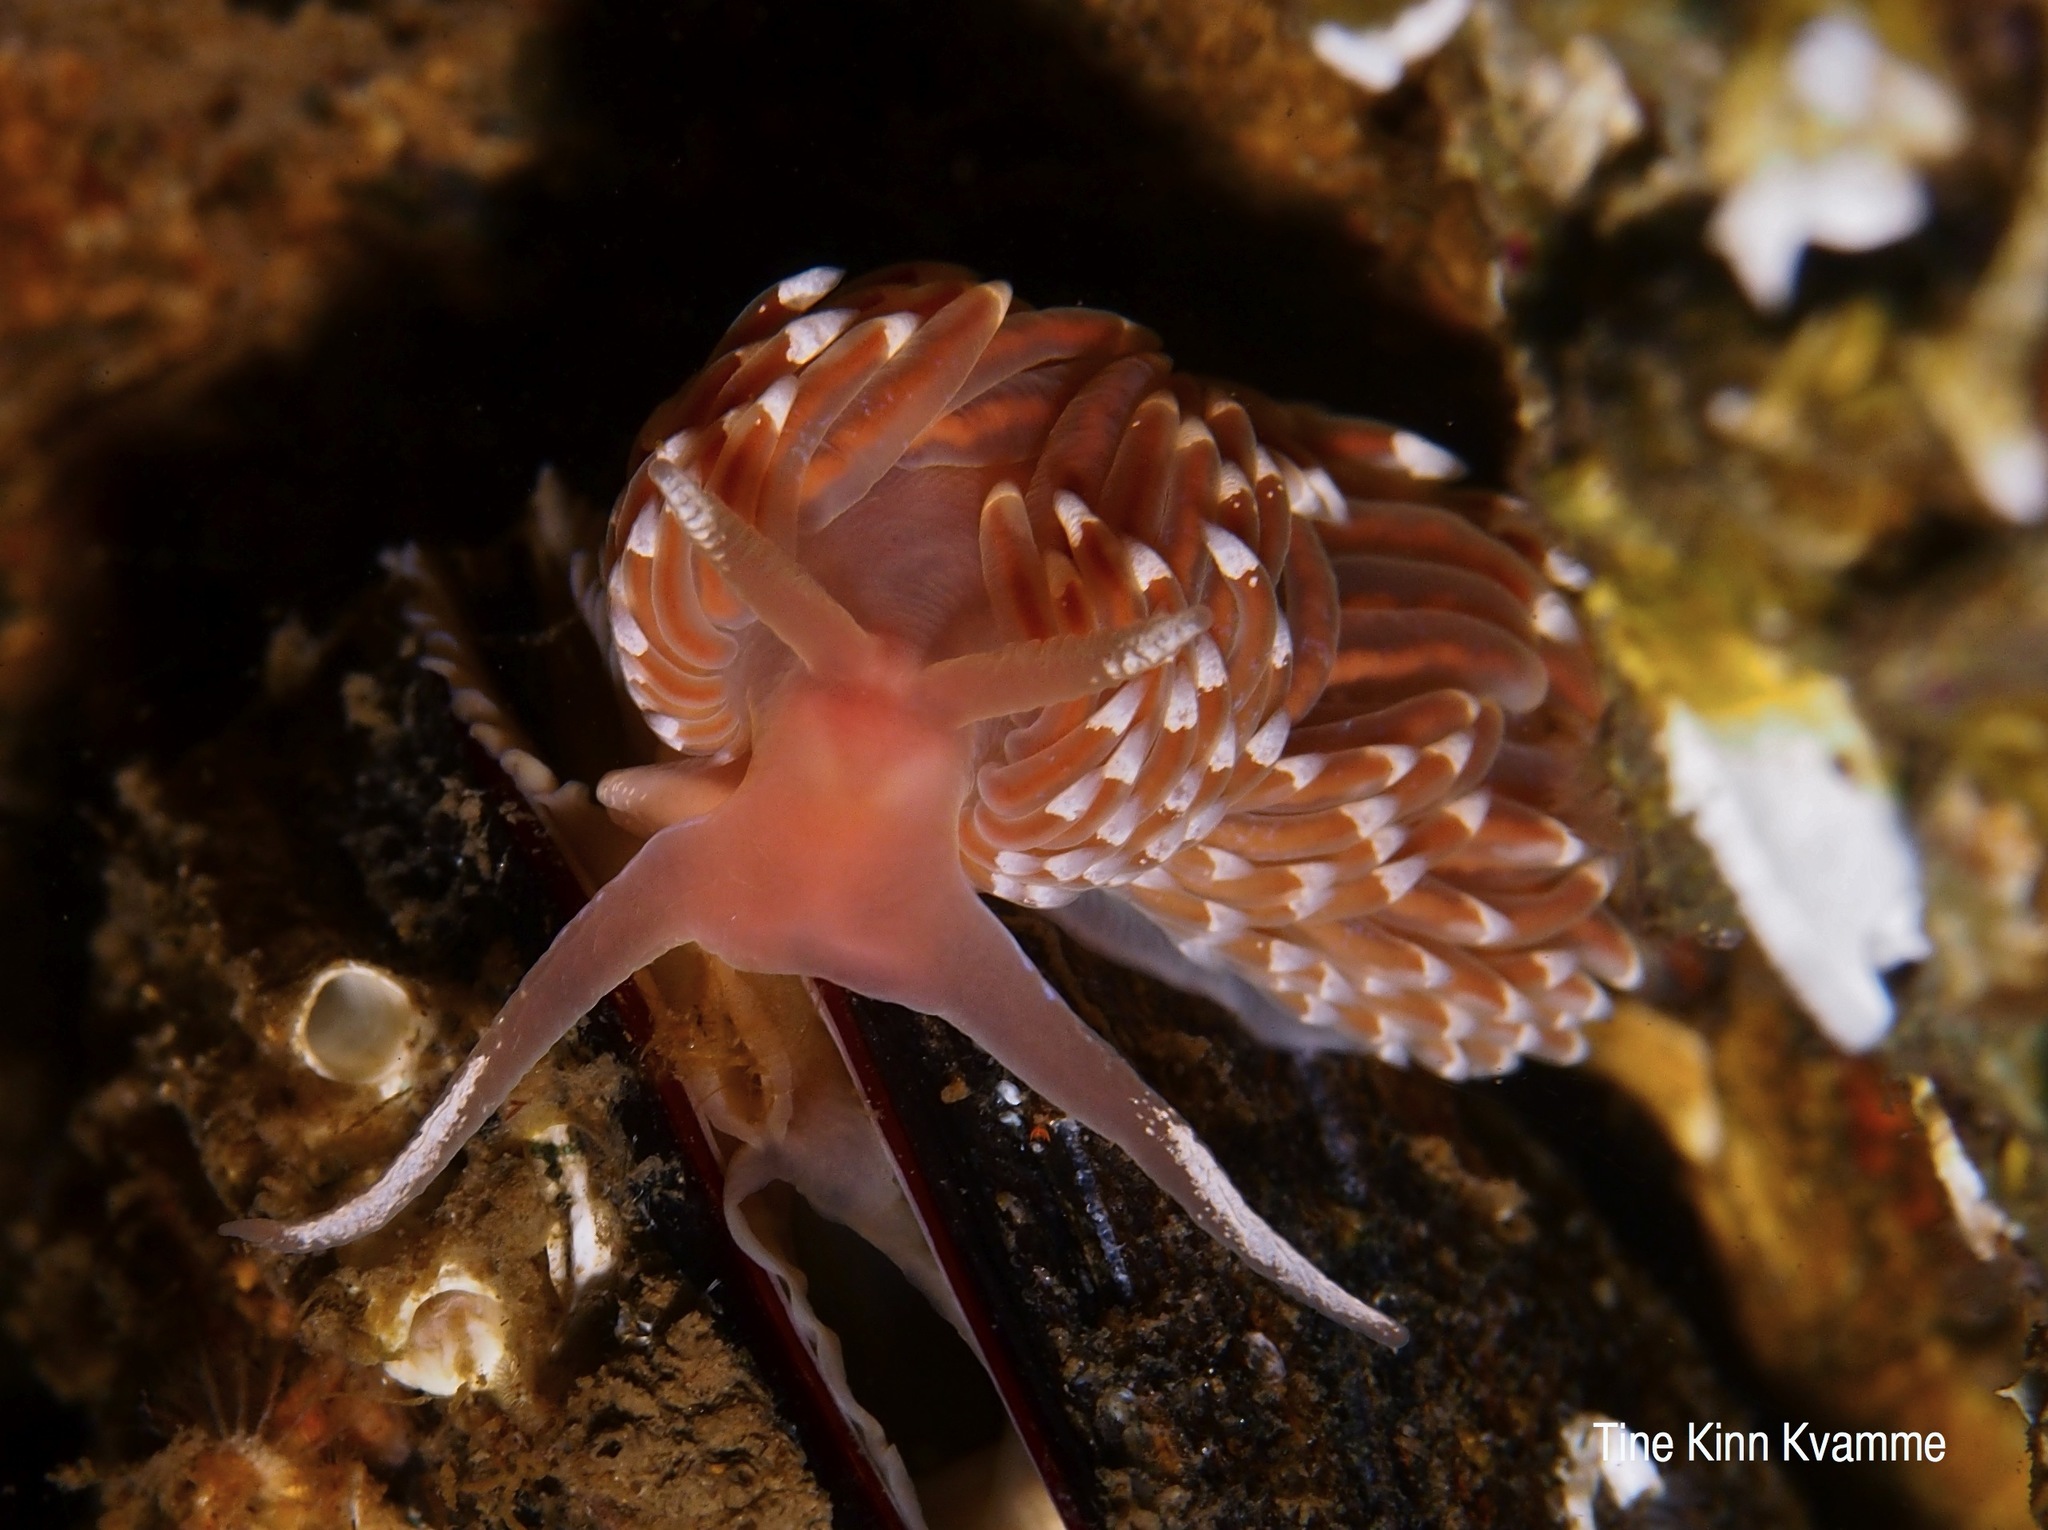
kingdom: Animalia
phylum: Mollusca
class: Gastropoda
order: Nudibranchia
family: Facelinidae
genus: Facelina
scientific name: Facelina bostoniensis
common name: Boston facelina
